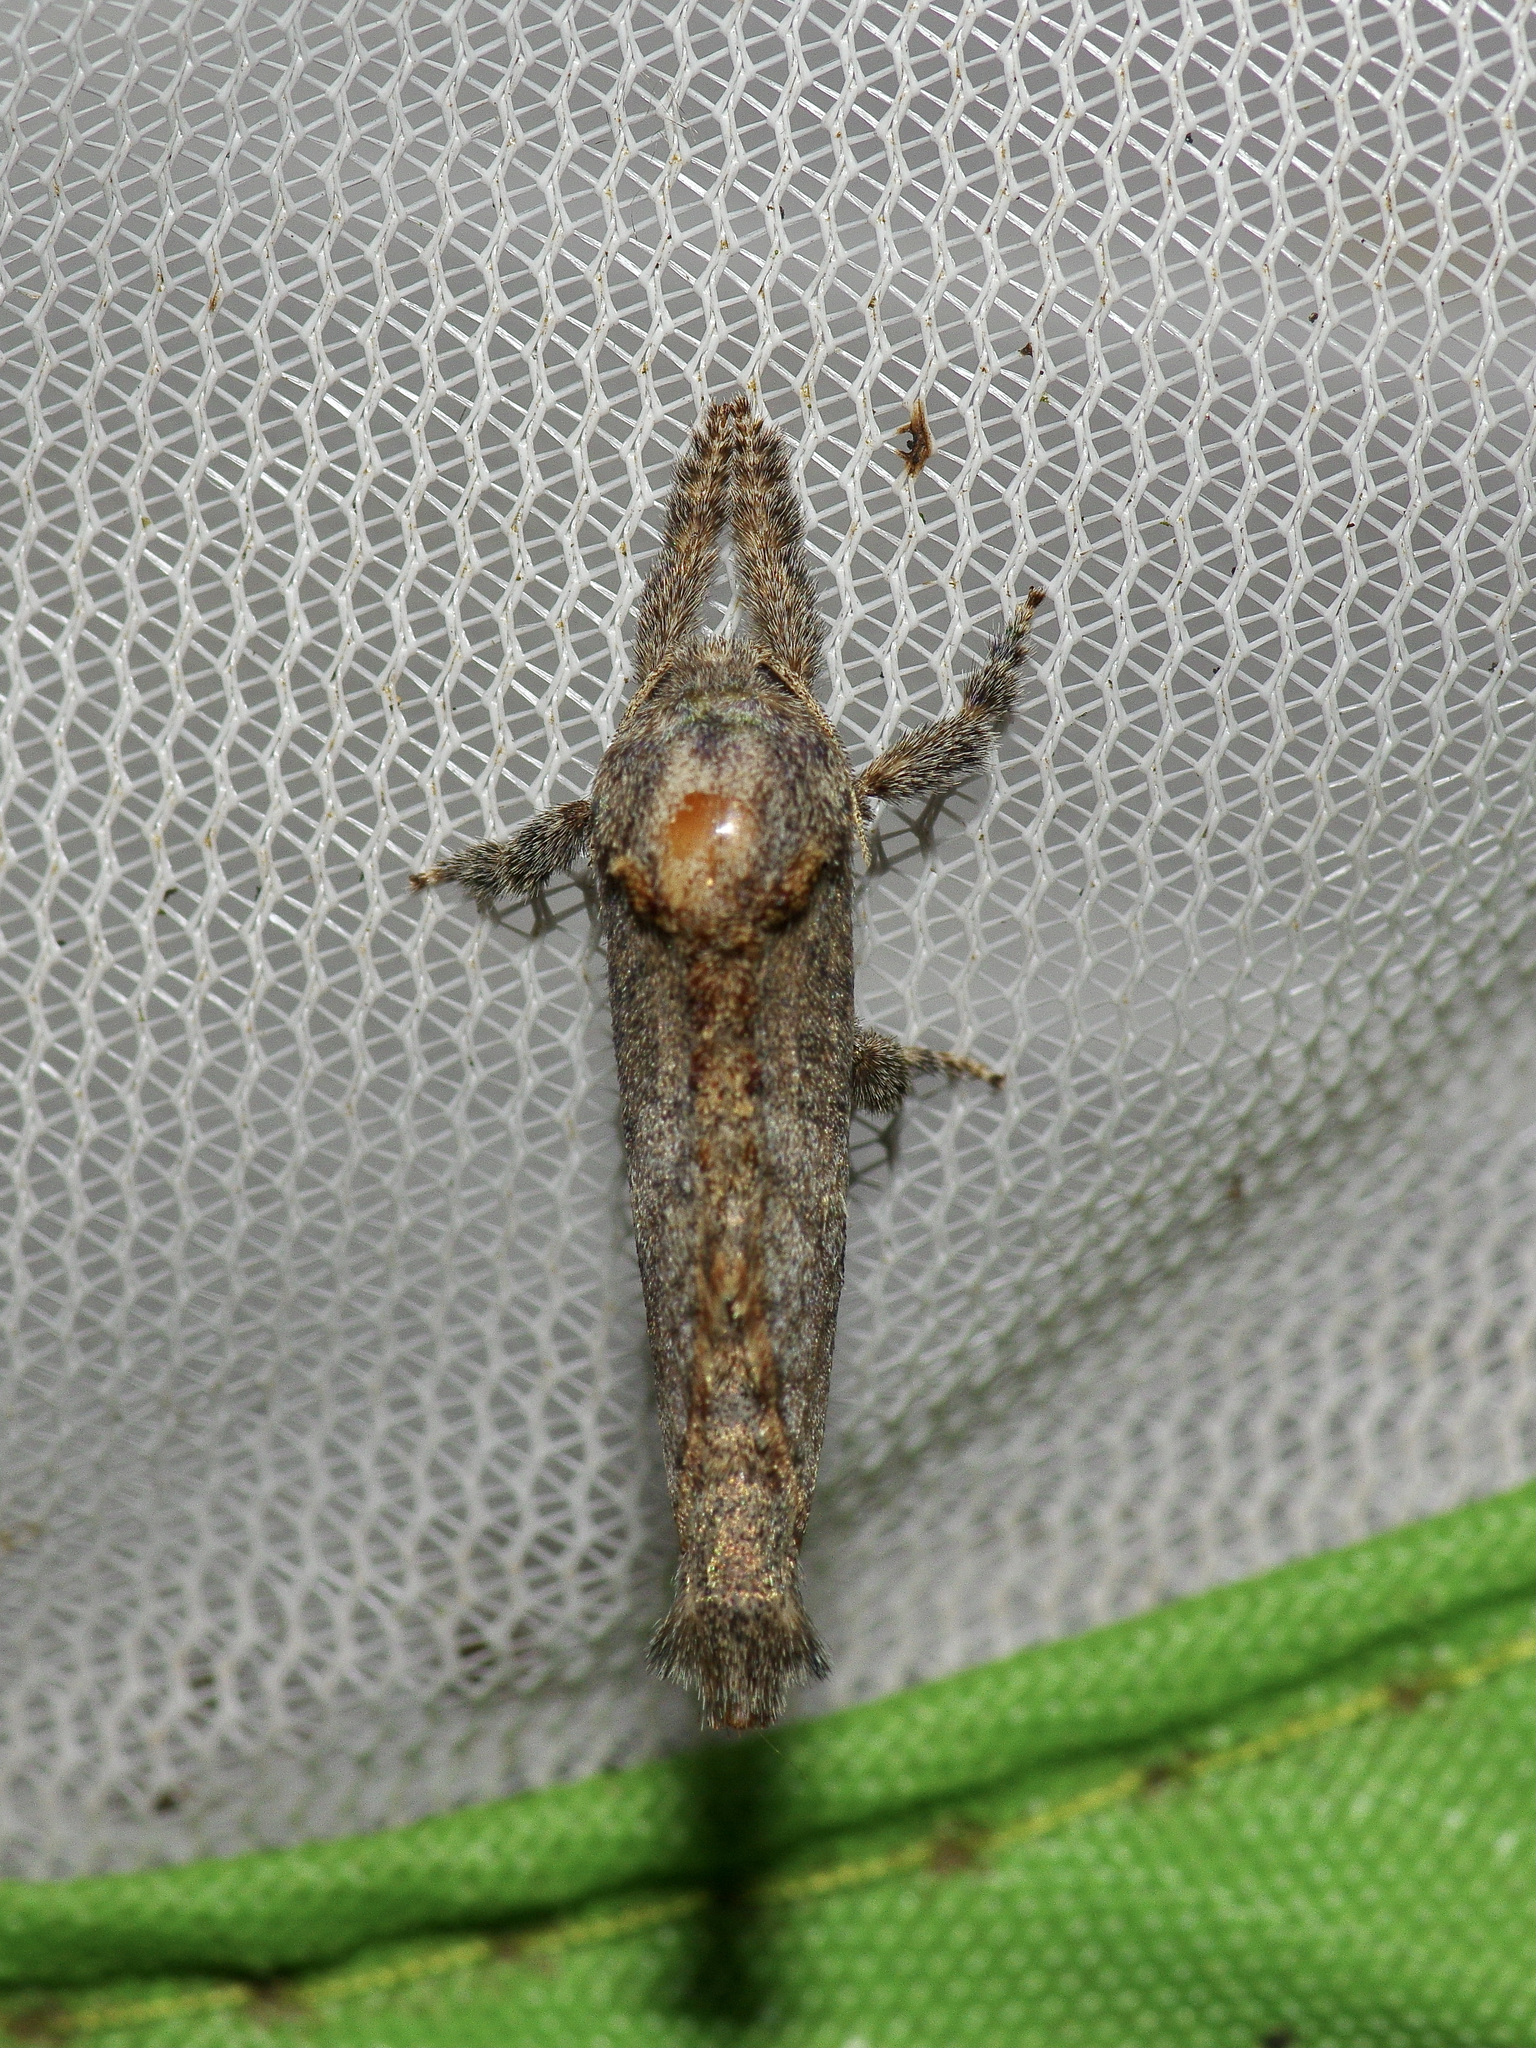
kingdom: Animalia
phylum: Arthropoda
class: Insecta
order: Lepidoptera
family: Cossidae
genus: Givira
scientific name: Givira arbeloides
